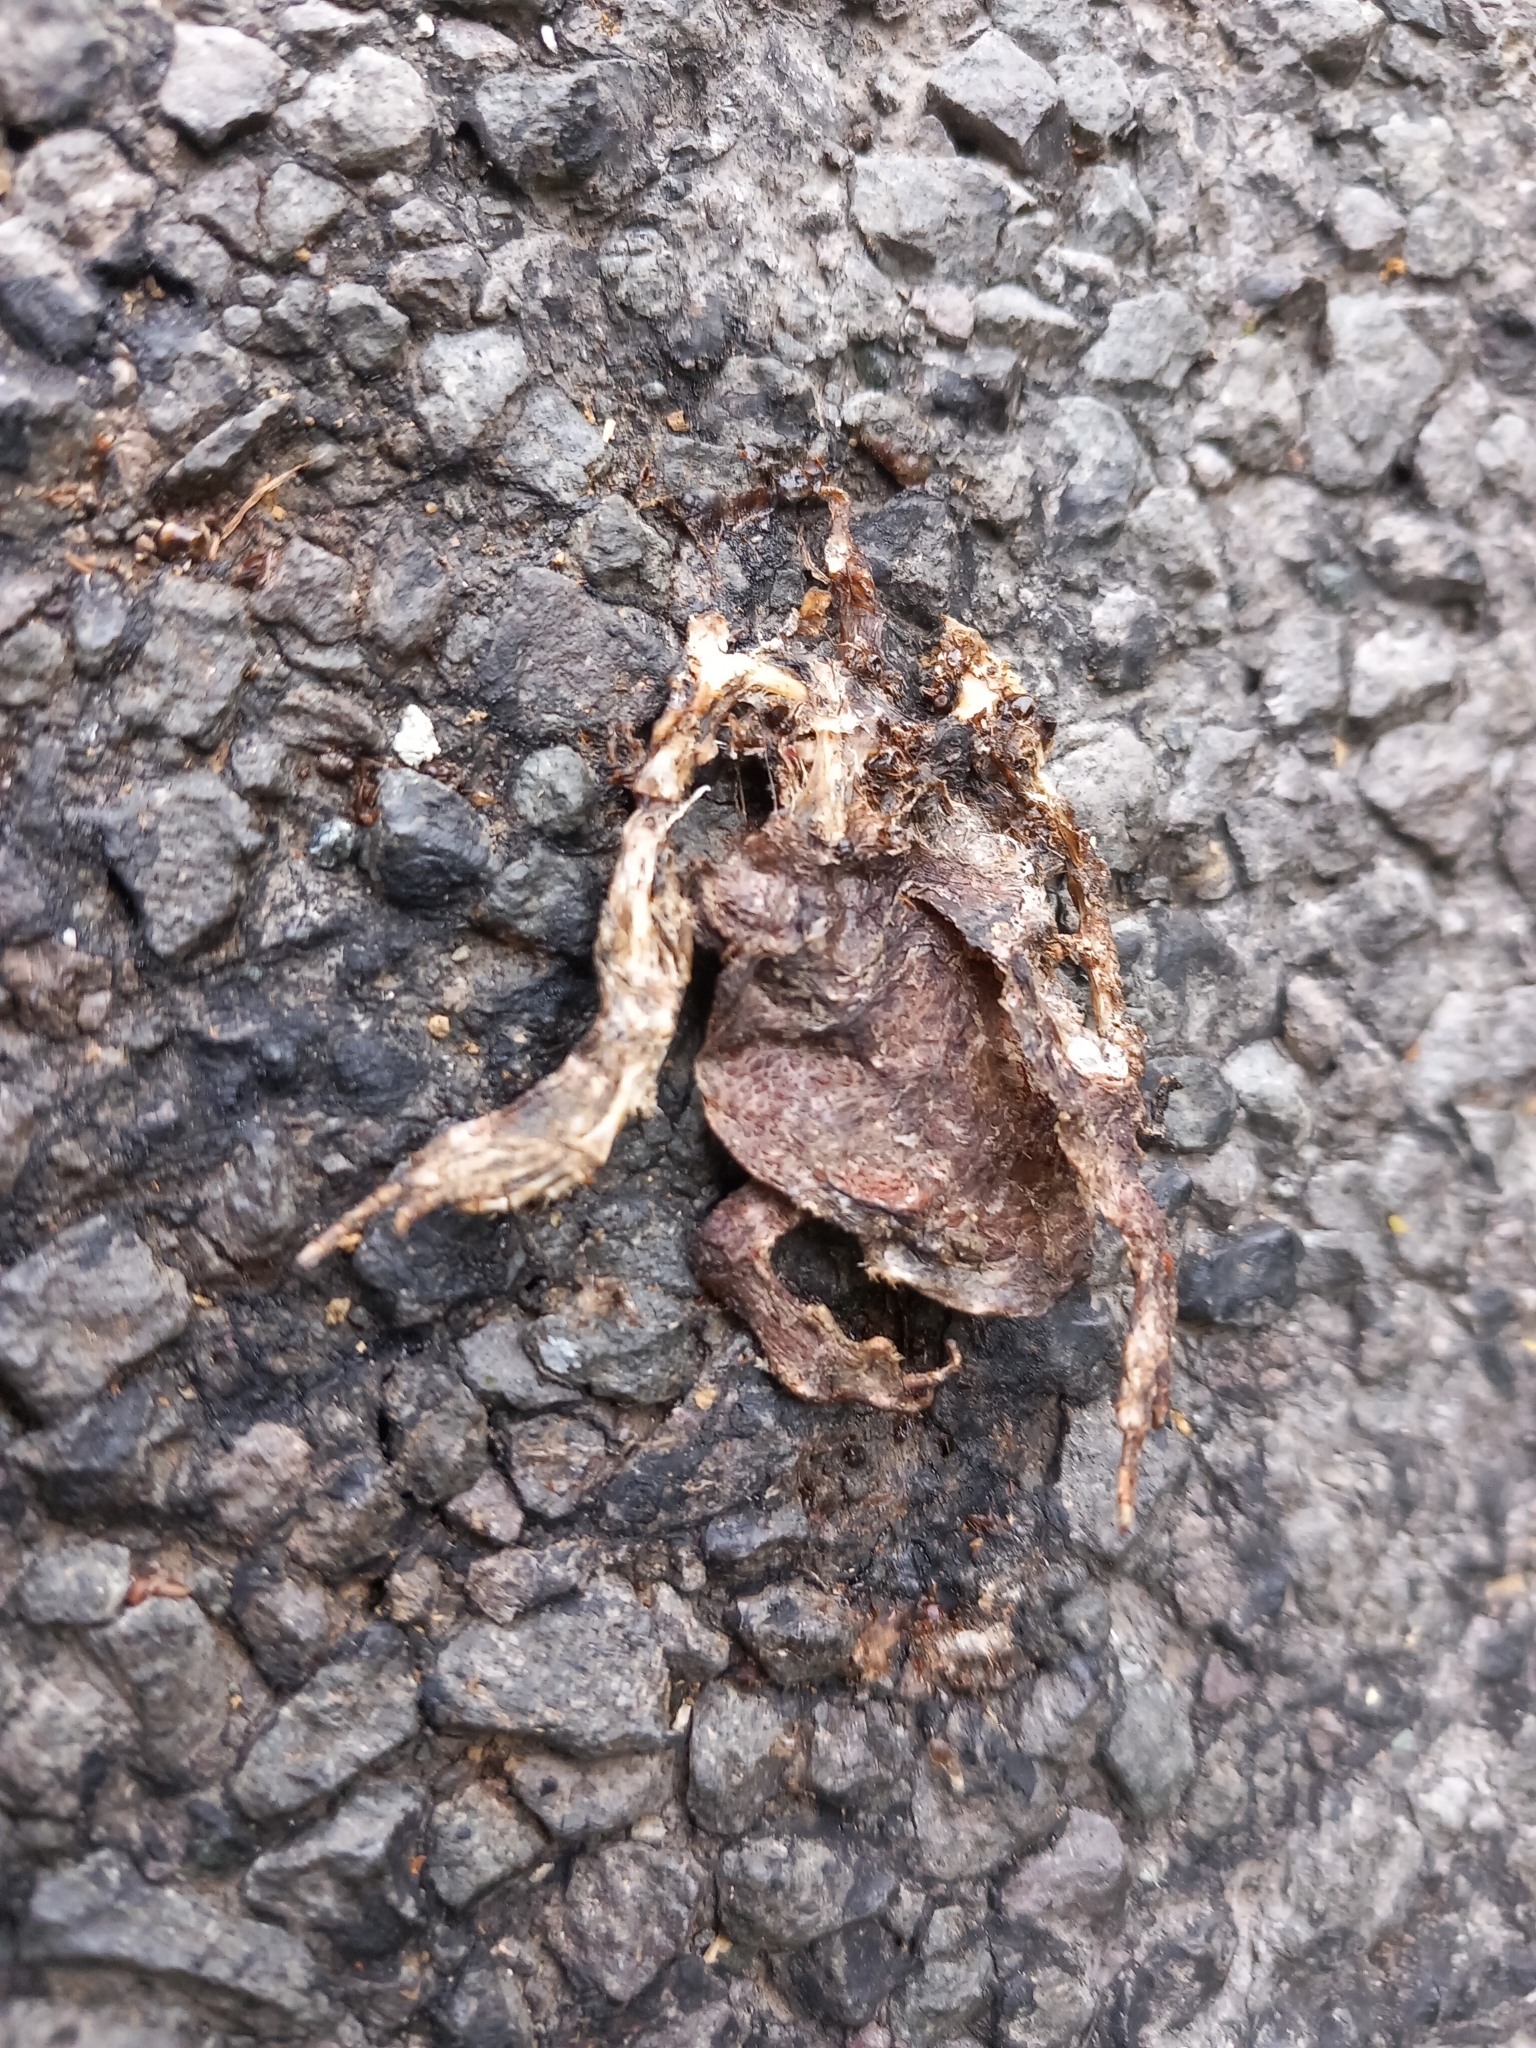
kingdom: Animalia
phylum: Chordata
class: Amphibia
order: Anura
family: Bufonidae
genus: Bufo
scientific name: Bufo bufo
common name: Common toad
